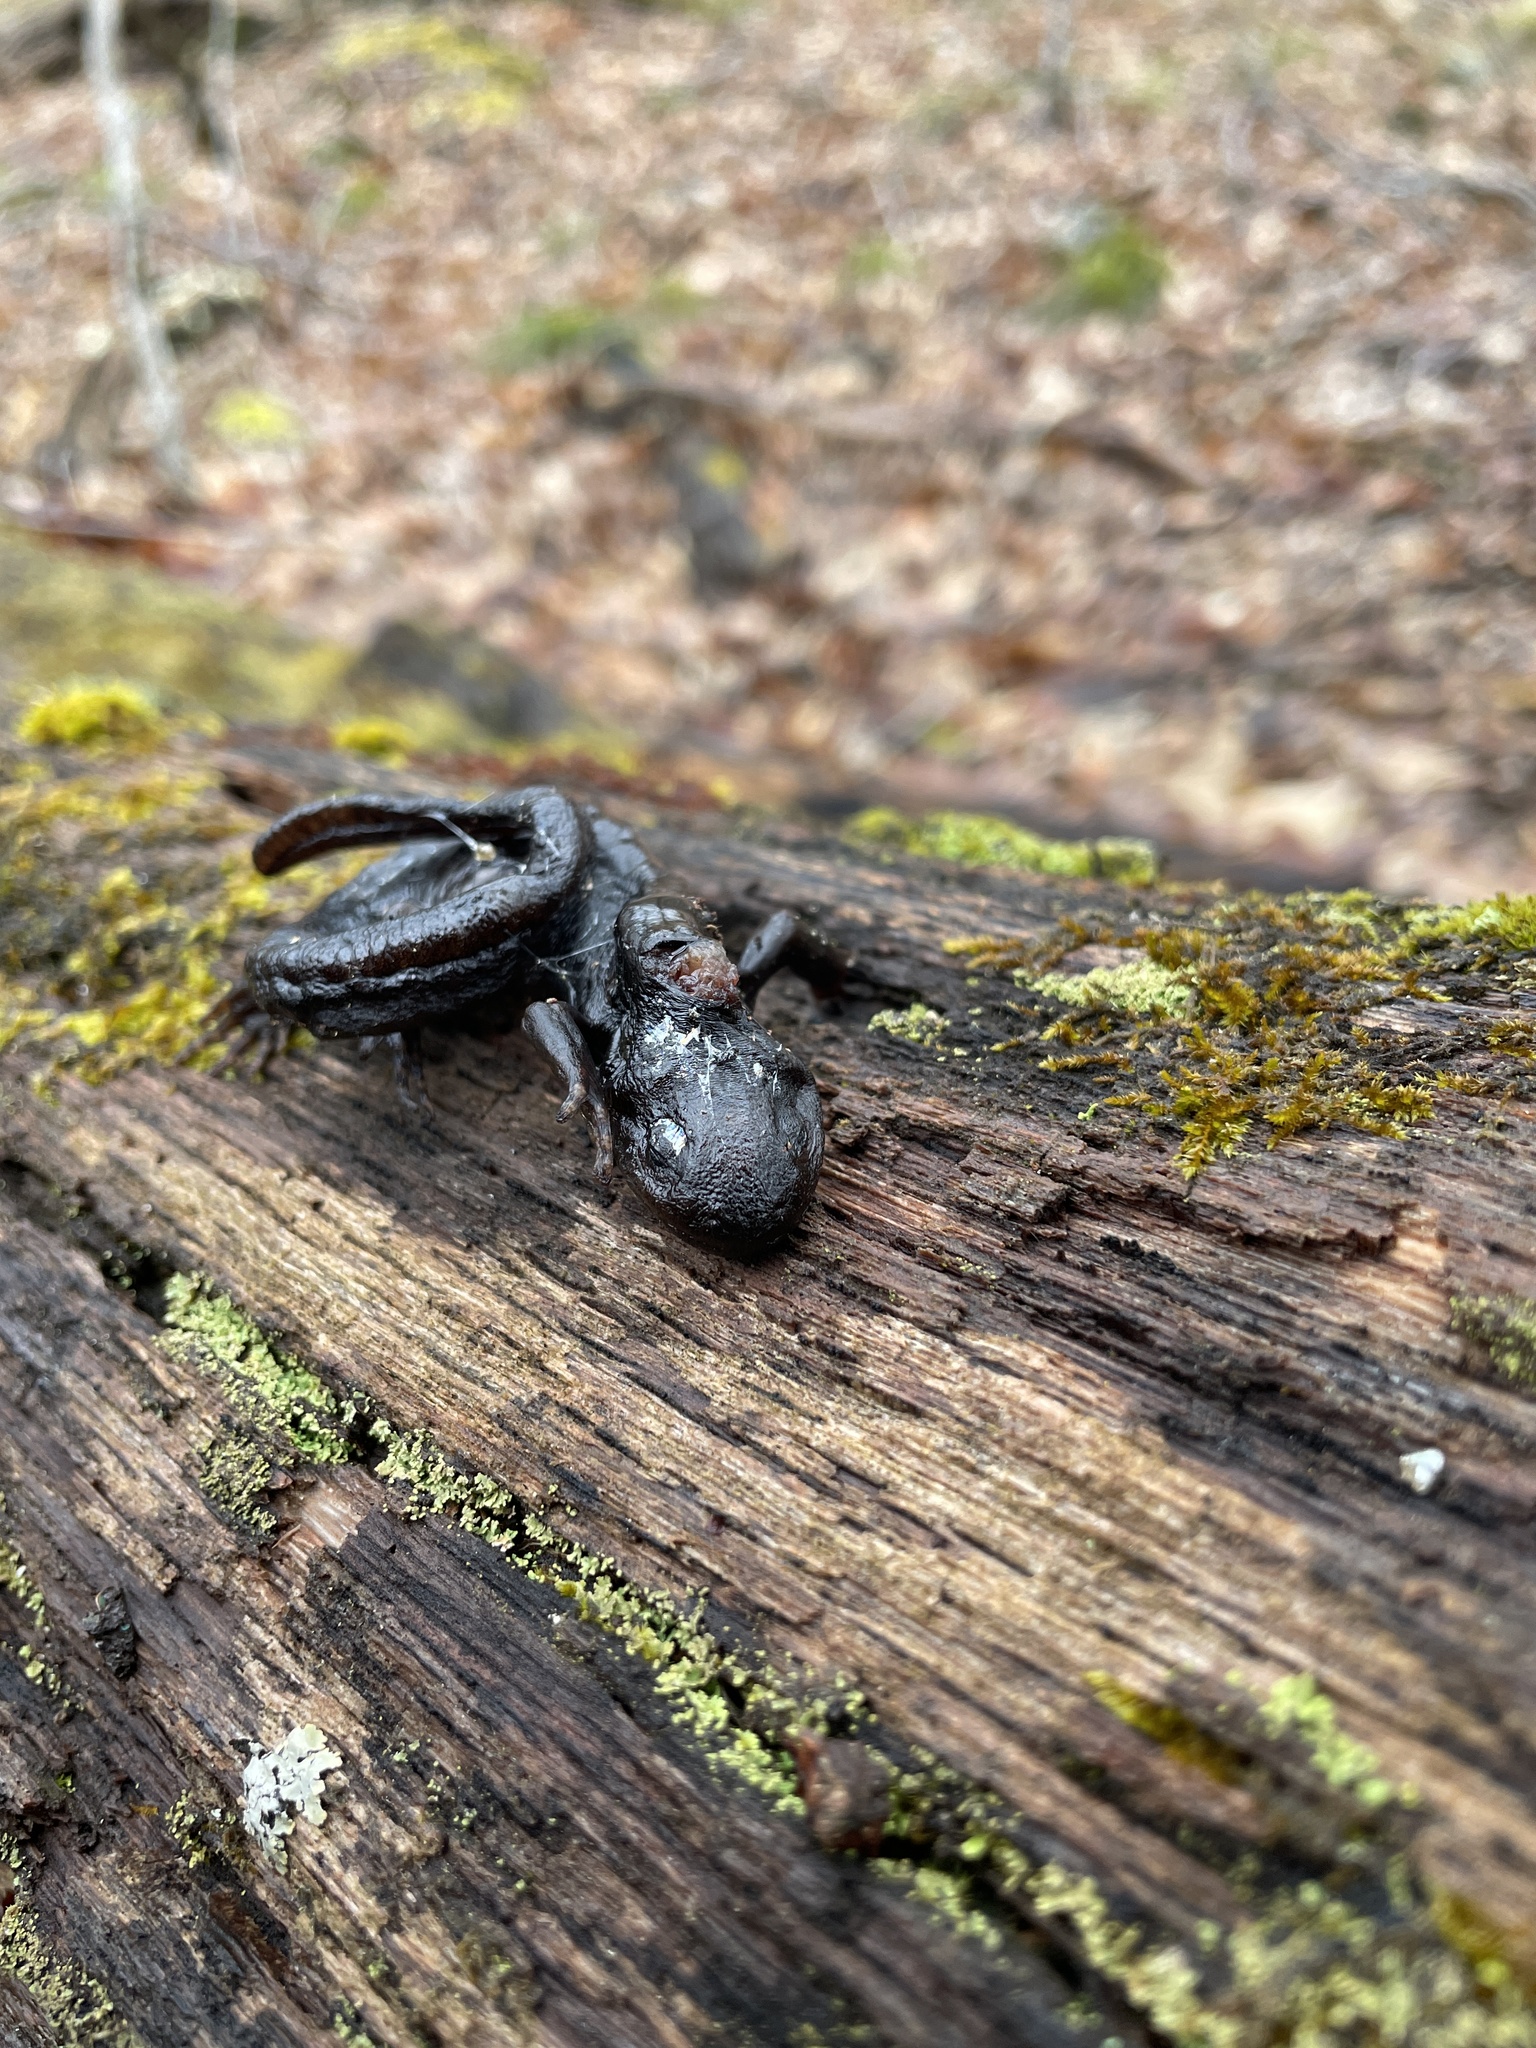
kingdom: Animalia
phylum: Chordata
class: Amphibia
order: Caudata
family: Ambystomatidae
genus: Ambystoma
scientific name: Ambystoma unisexual
